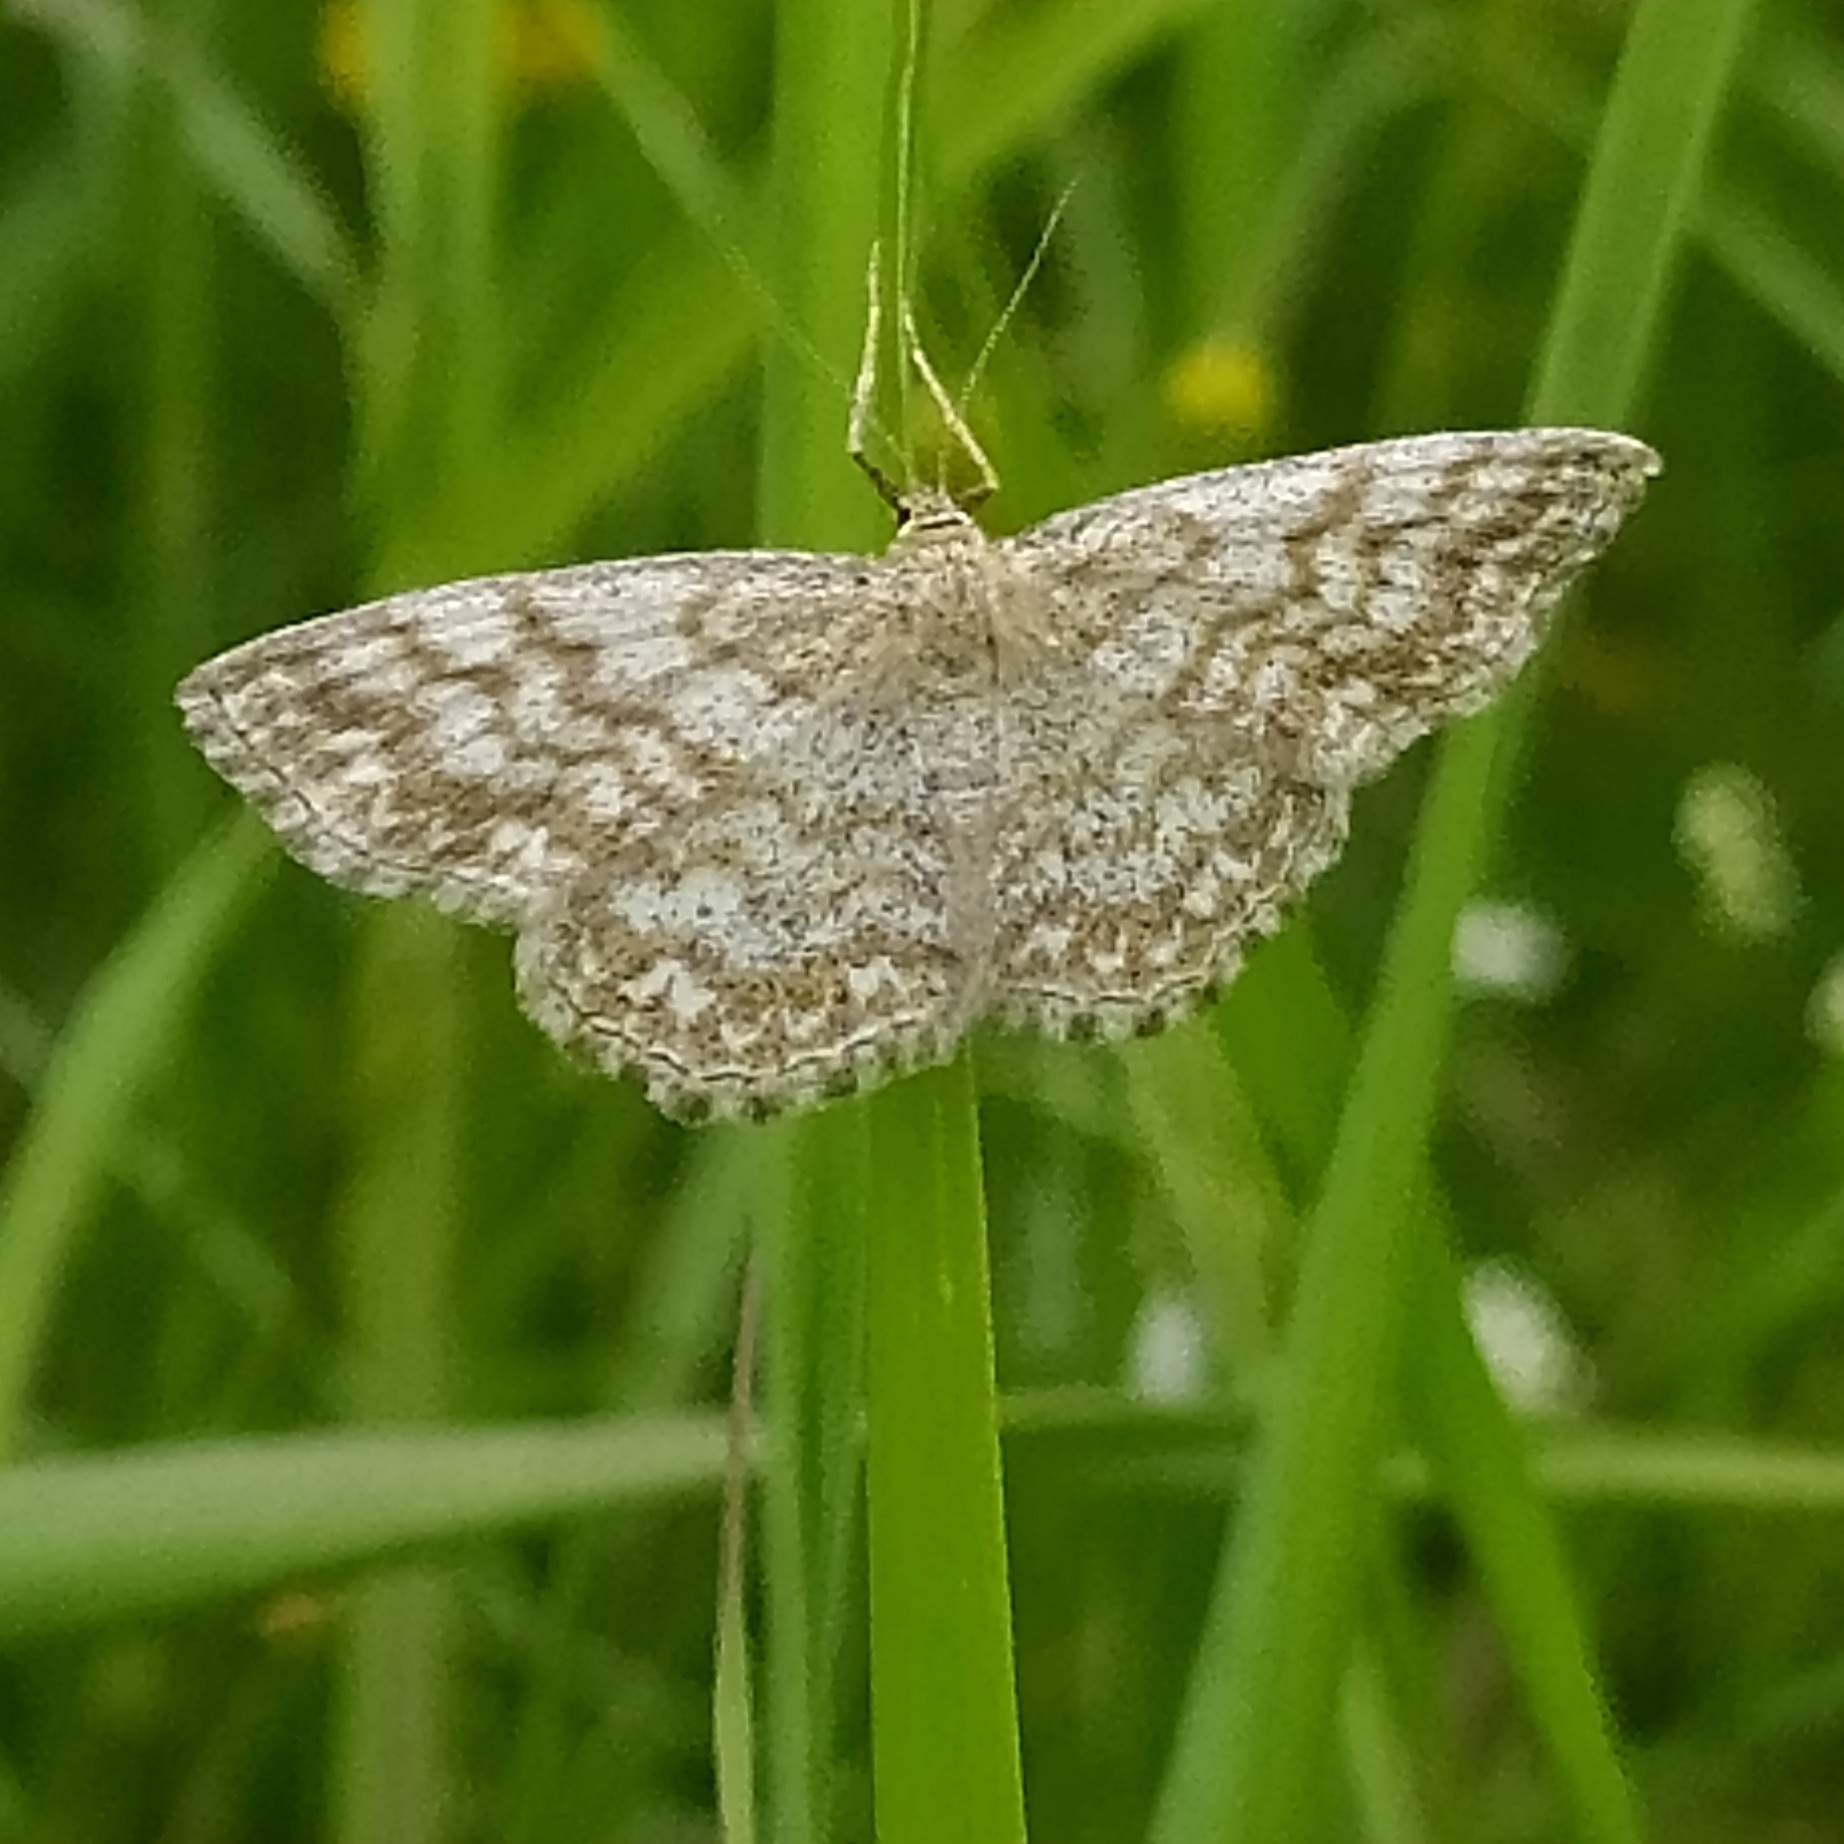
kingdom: Animalia
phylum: Arthropoda
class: Insecta
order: Lepidoptera
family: Geometridae
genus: Scopula
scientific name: Scopula immorata
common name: Lewes wave
